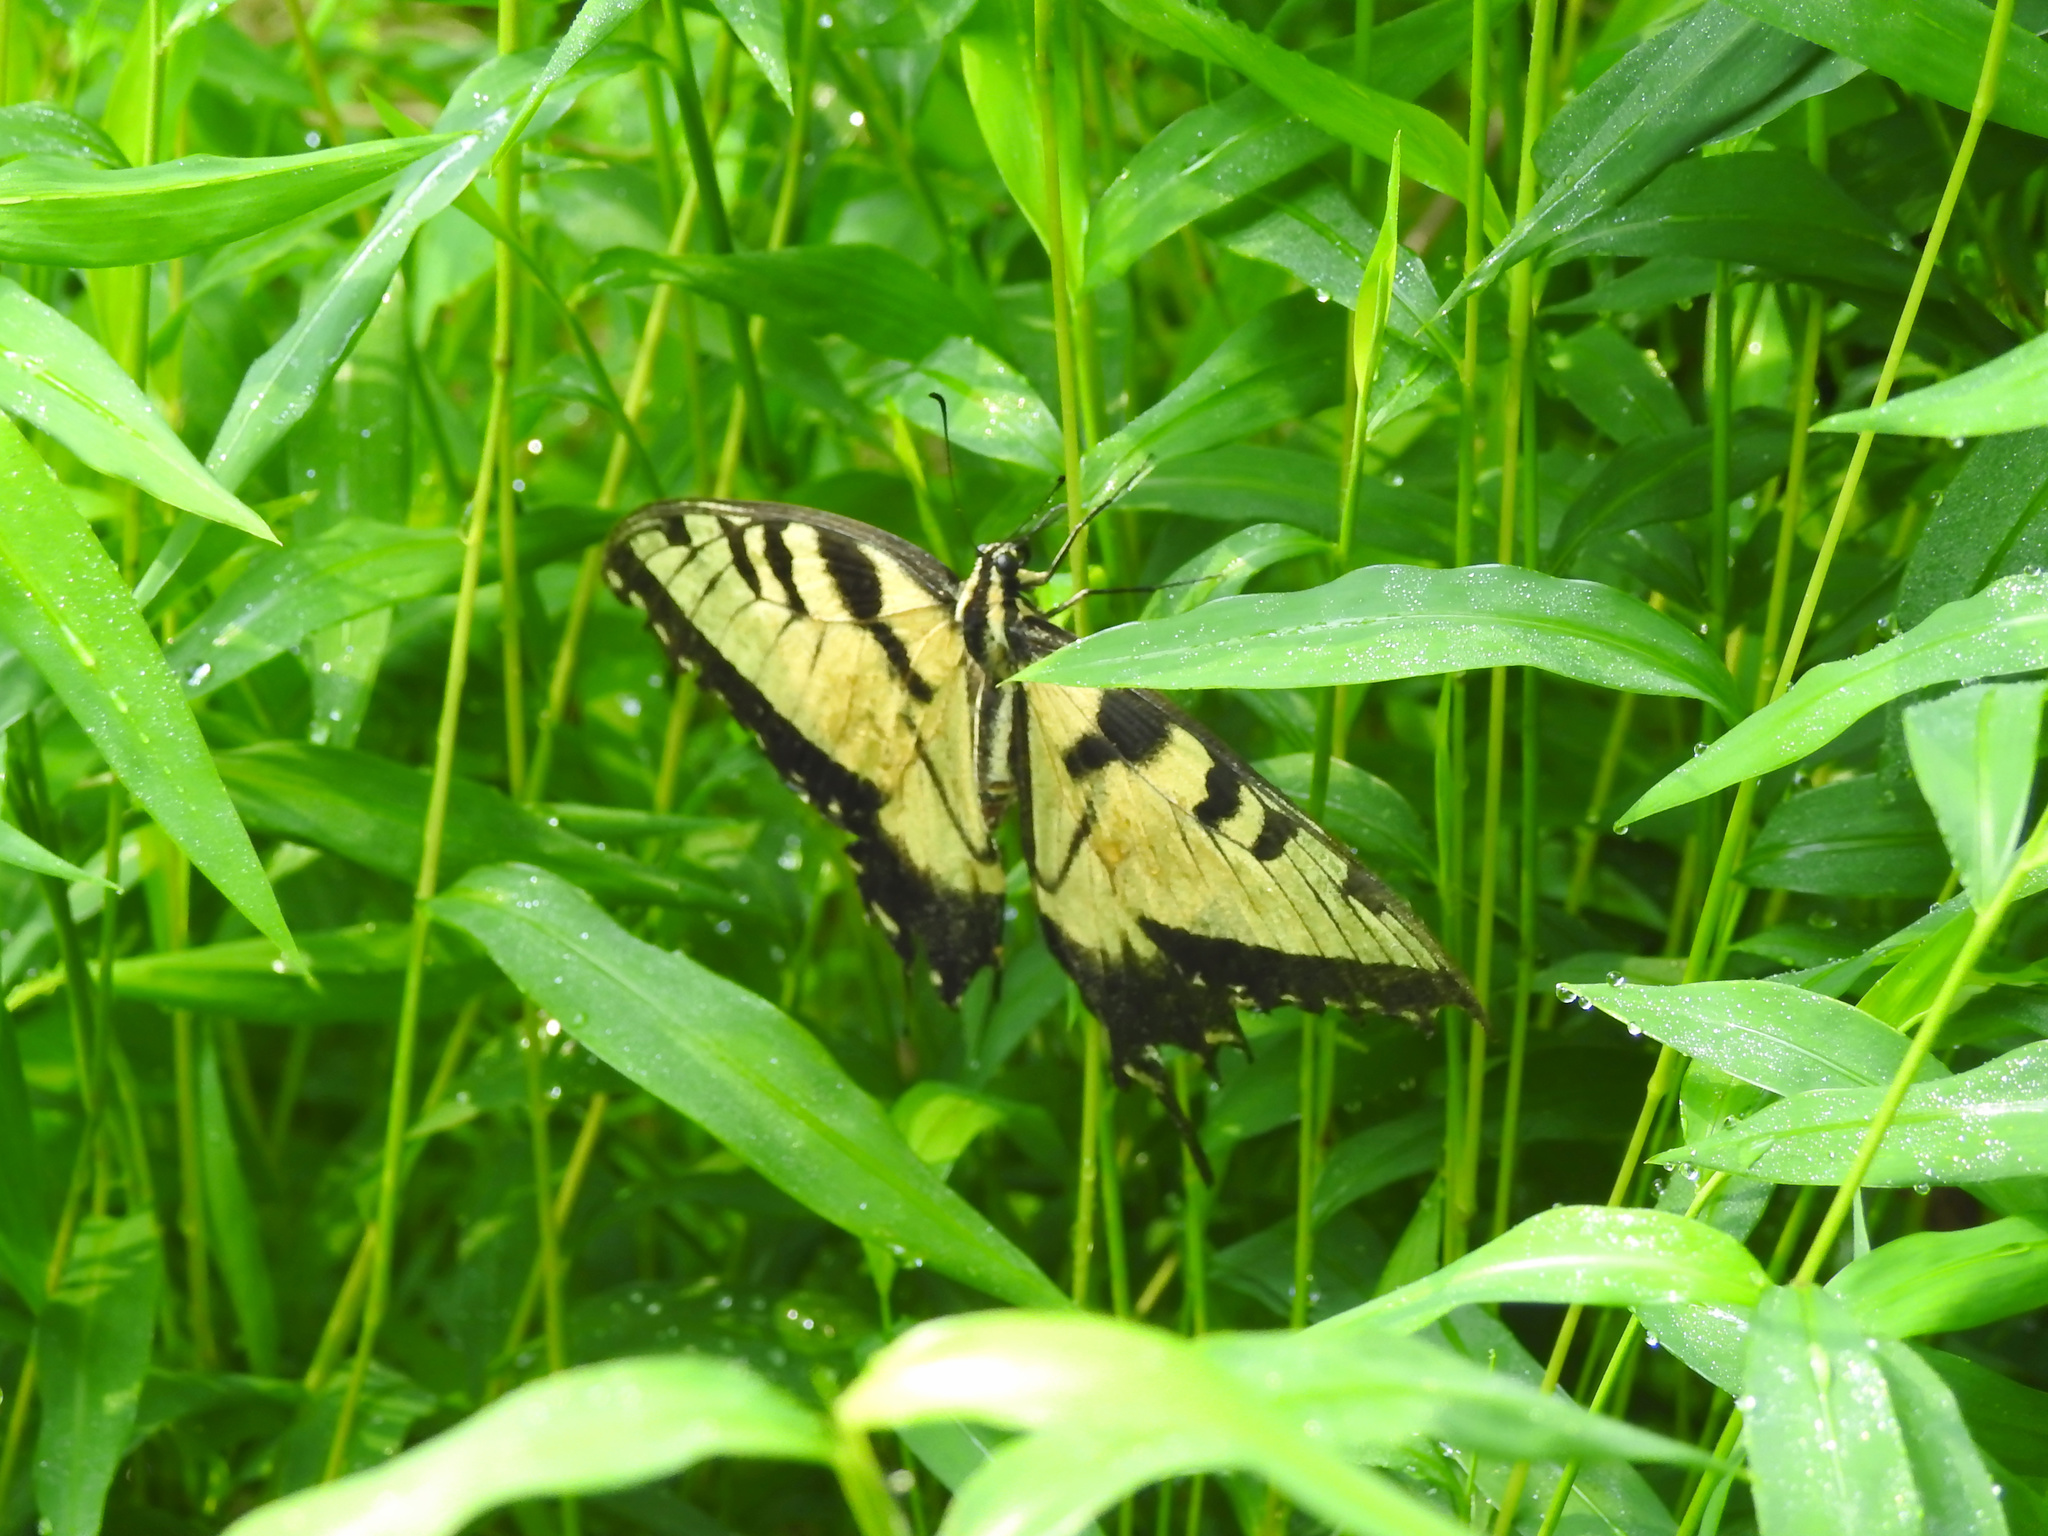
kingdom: Animalia
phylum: Arthropoda
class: Insecta
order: Lepidoptera
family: Papilionidae
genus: Papilio
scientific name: Papilio glaucus
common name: Tiger swallowtail
